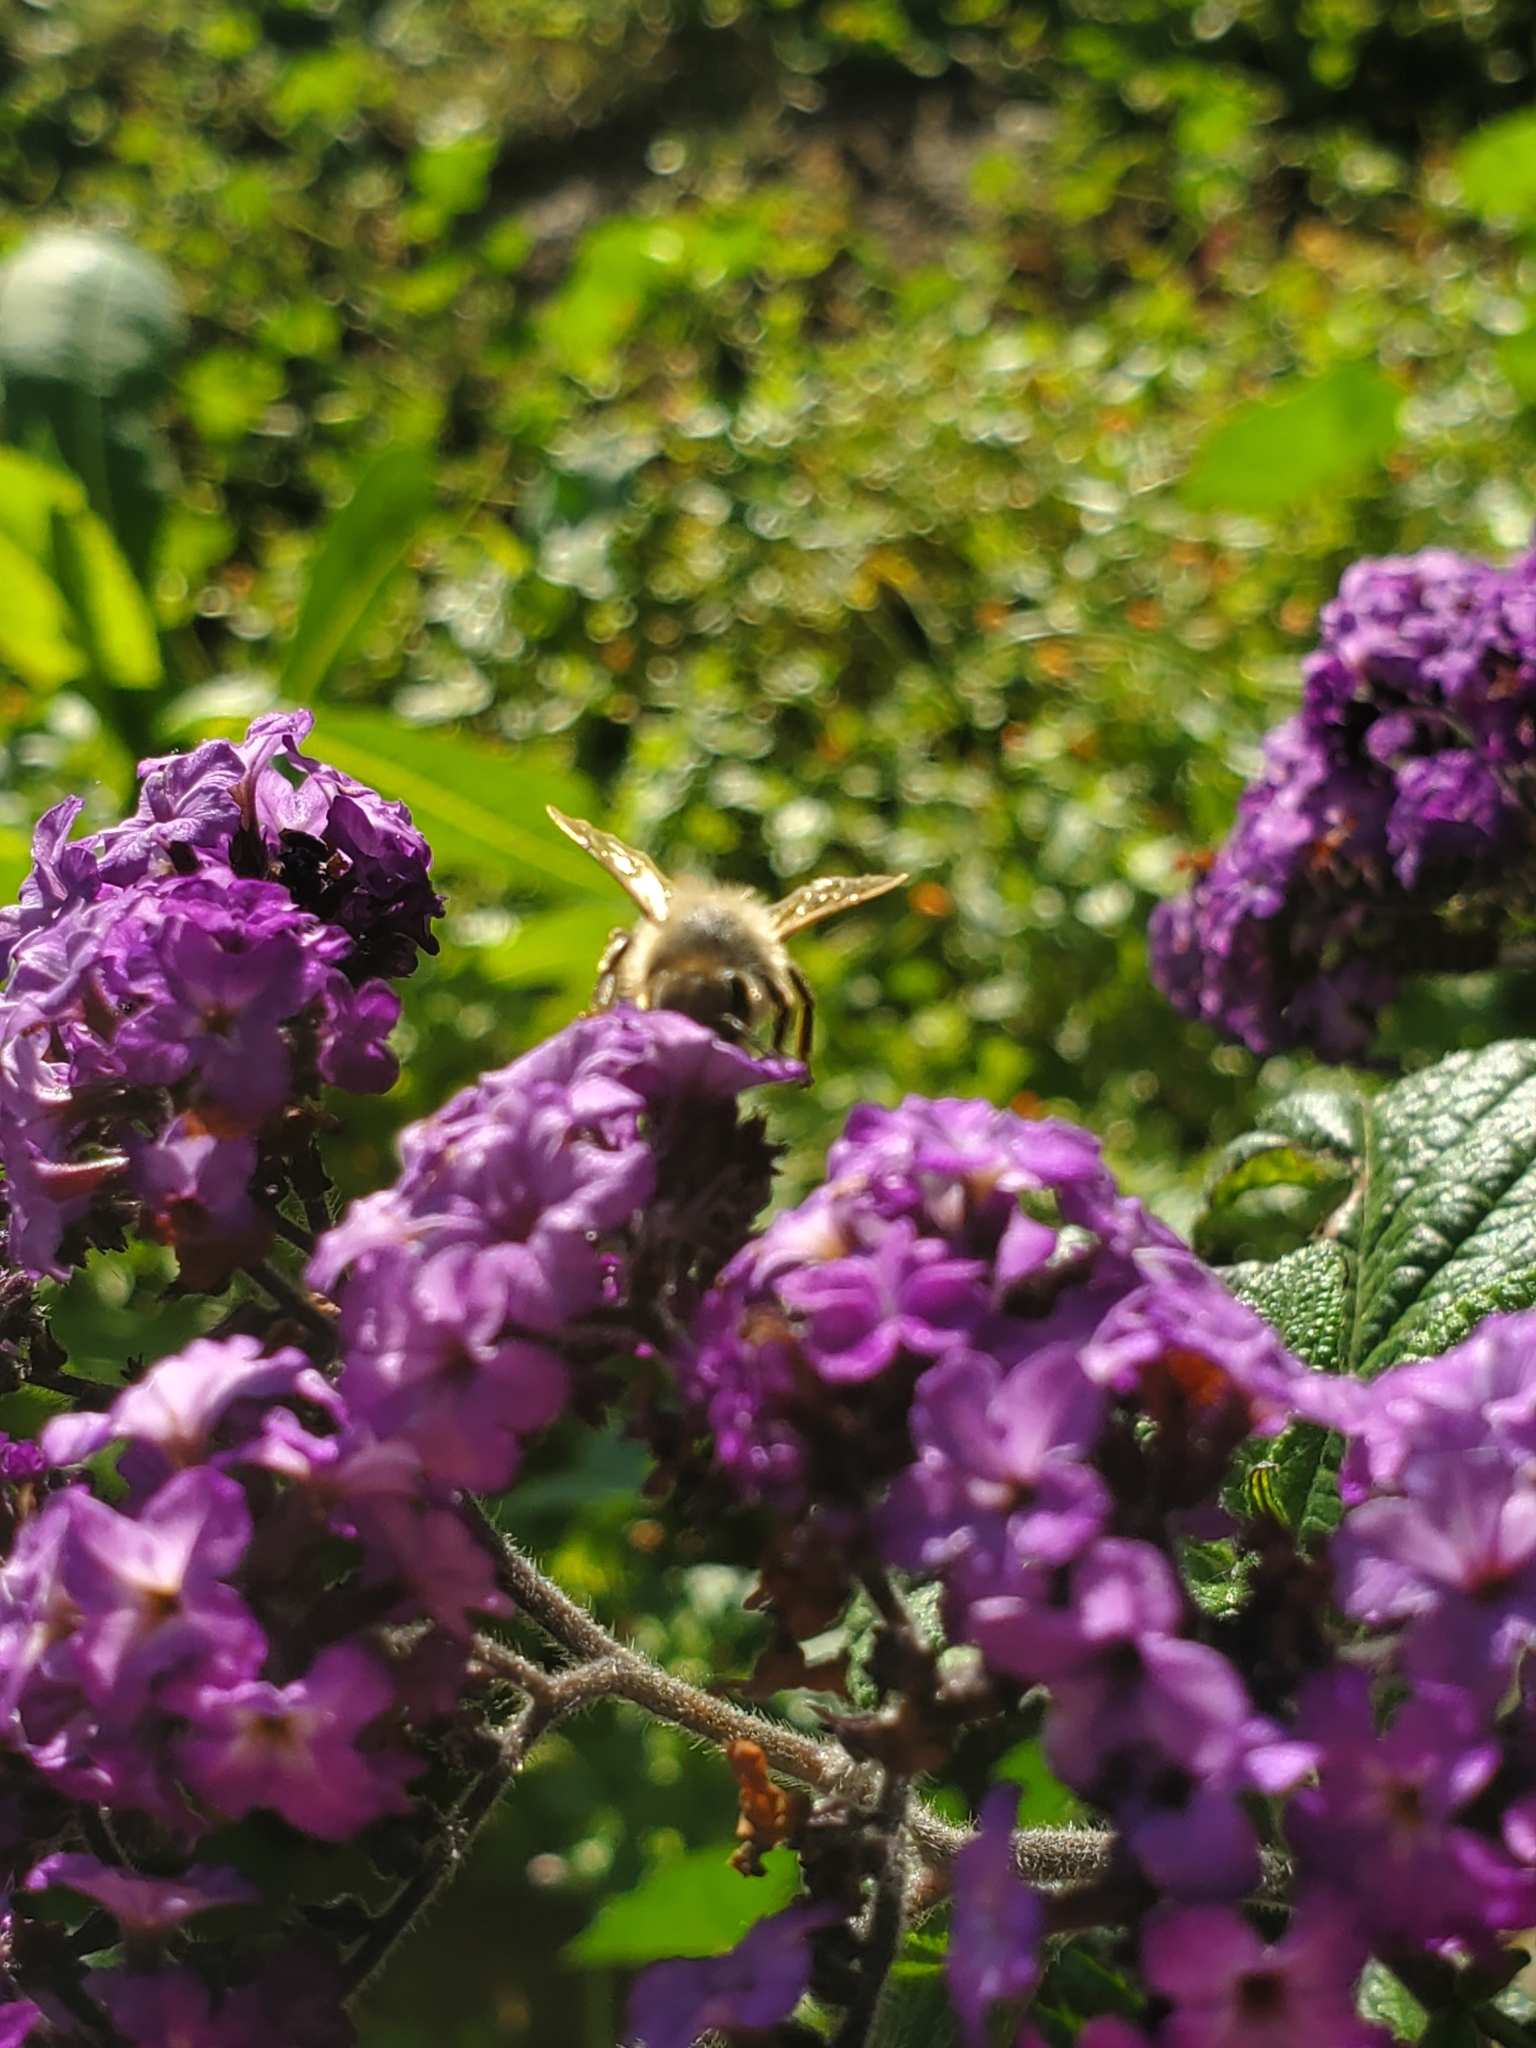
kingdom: Animalia
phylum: Arthropoda
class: Insecta
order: Hymenoptera
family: Apidae
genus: Apis
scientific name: Apis mellifera
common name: Honey bee
